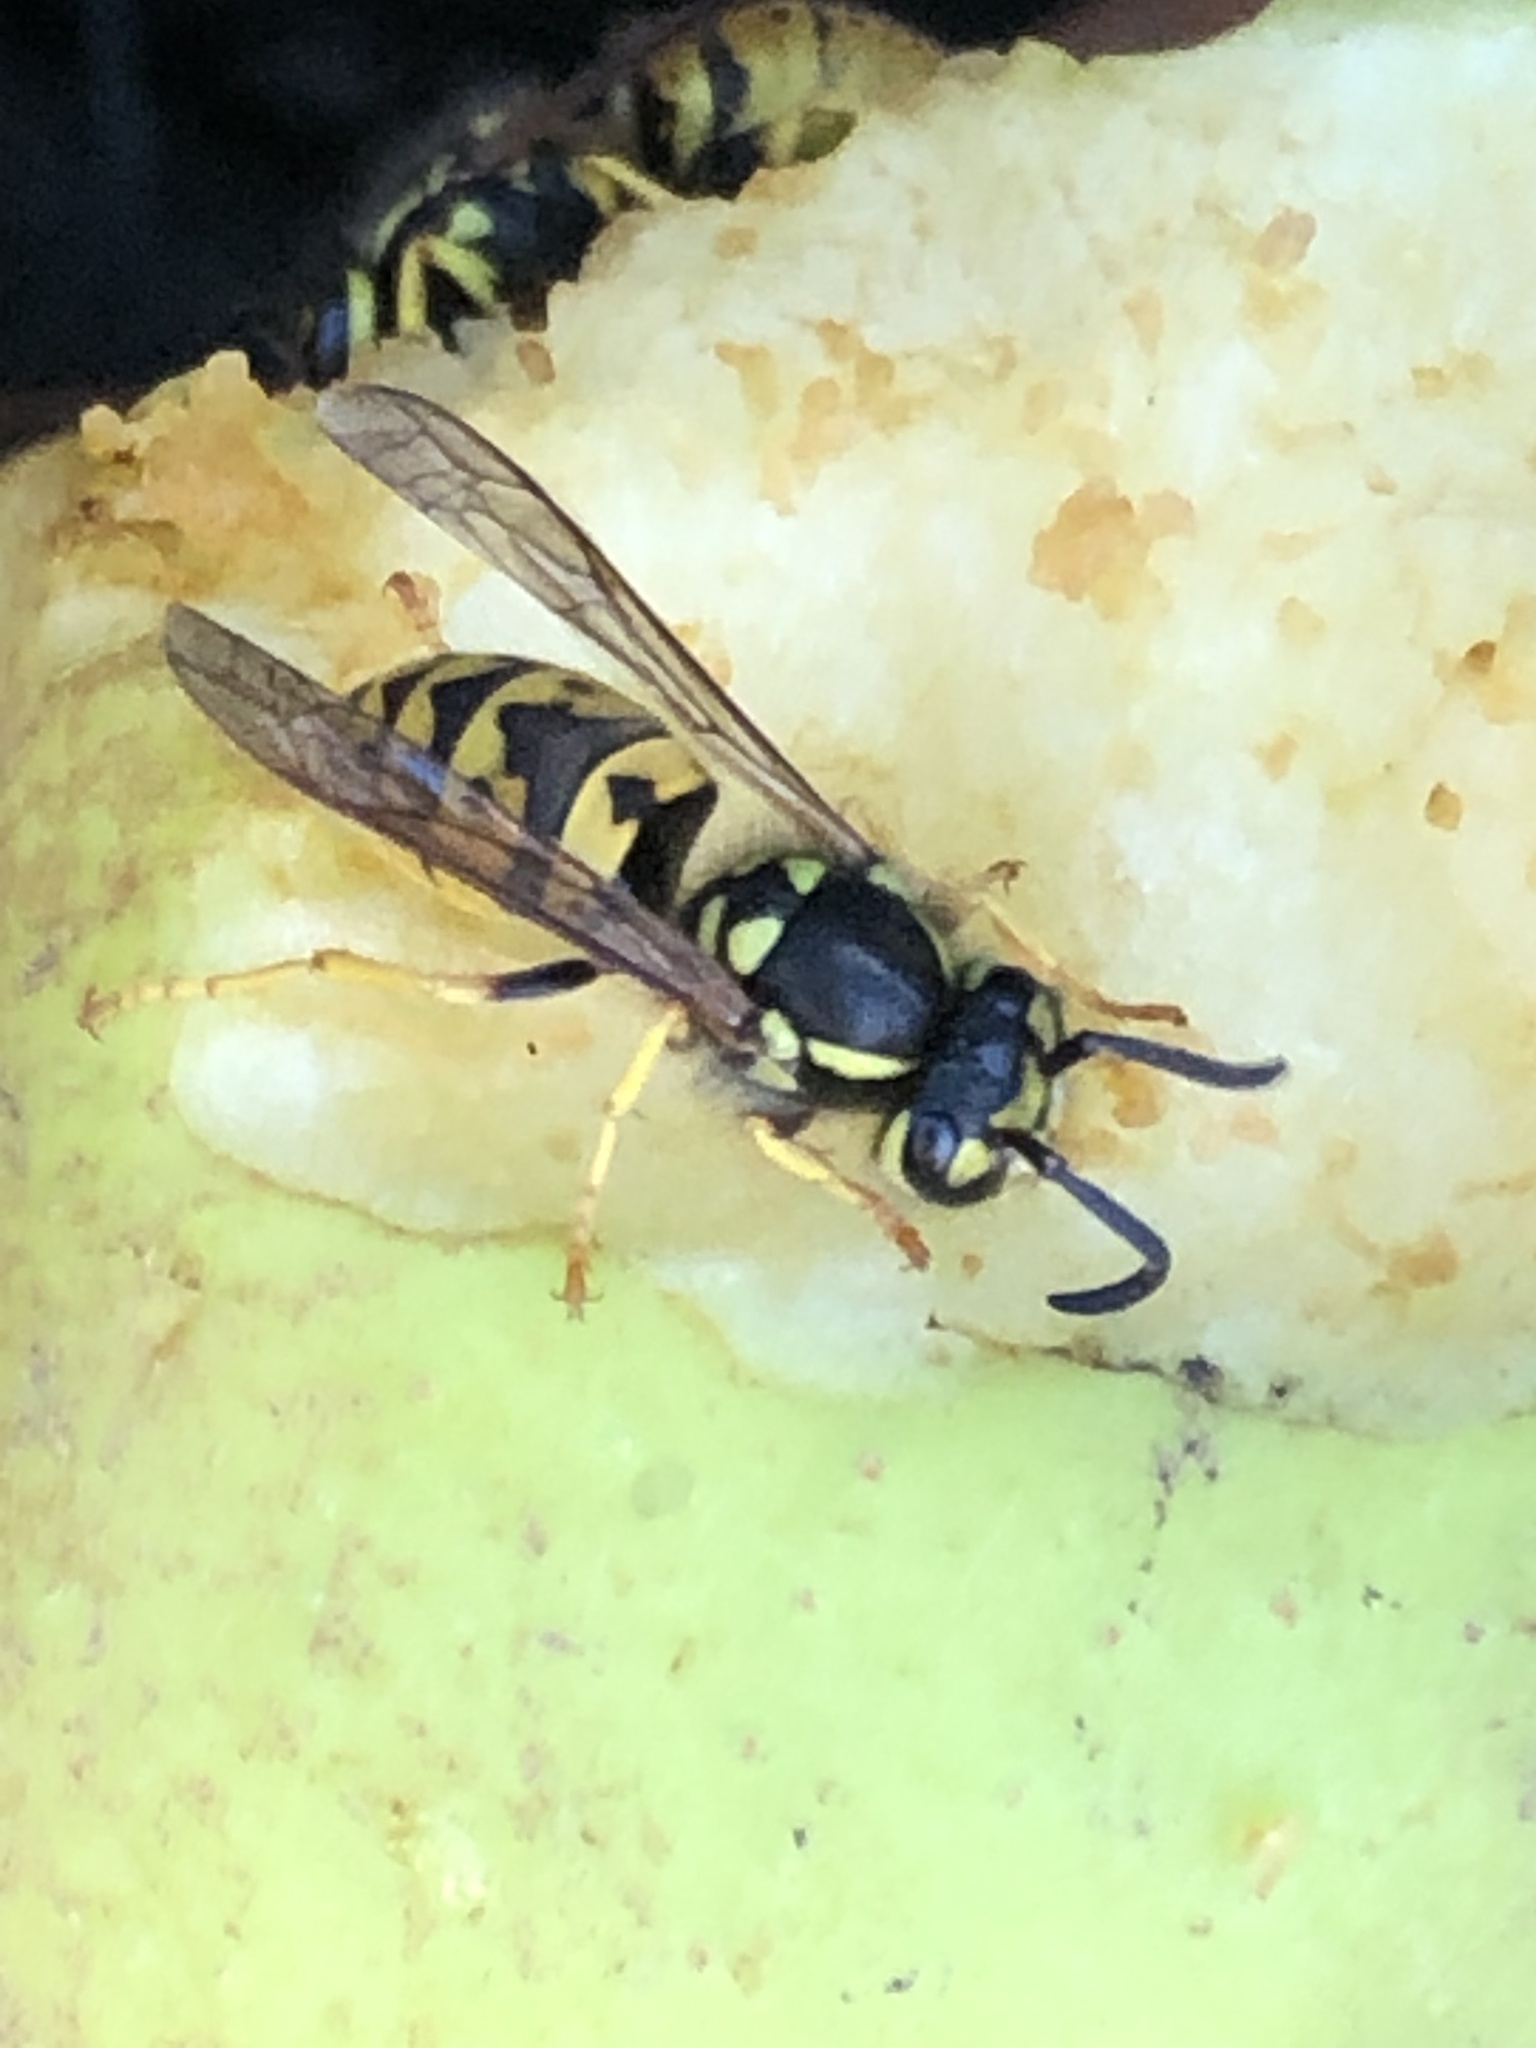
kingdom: Animalia
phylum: Arthropoda
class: Insecta
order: Hymenoptera
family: Vespidae
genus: Vespula
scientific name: Vespula germanica
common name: German wasp
